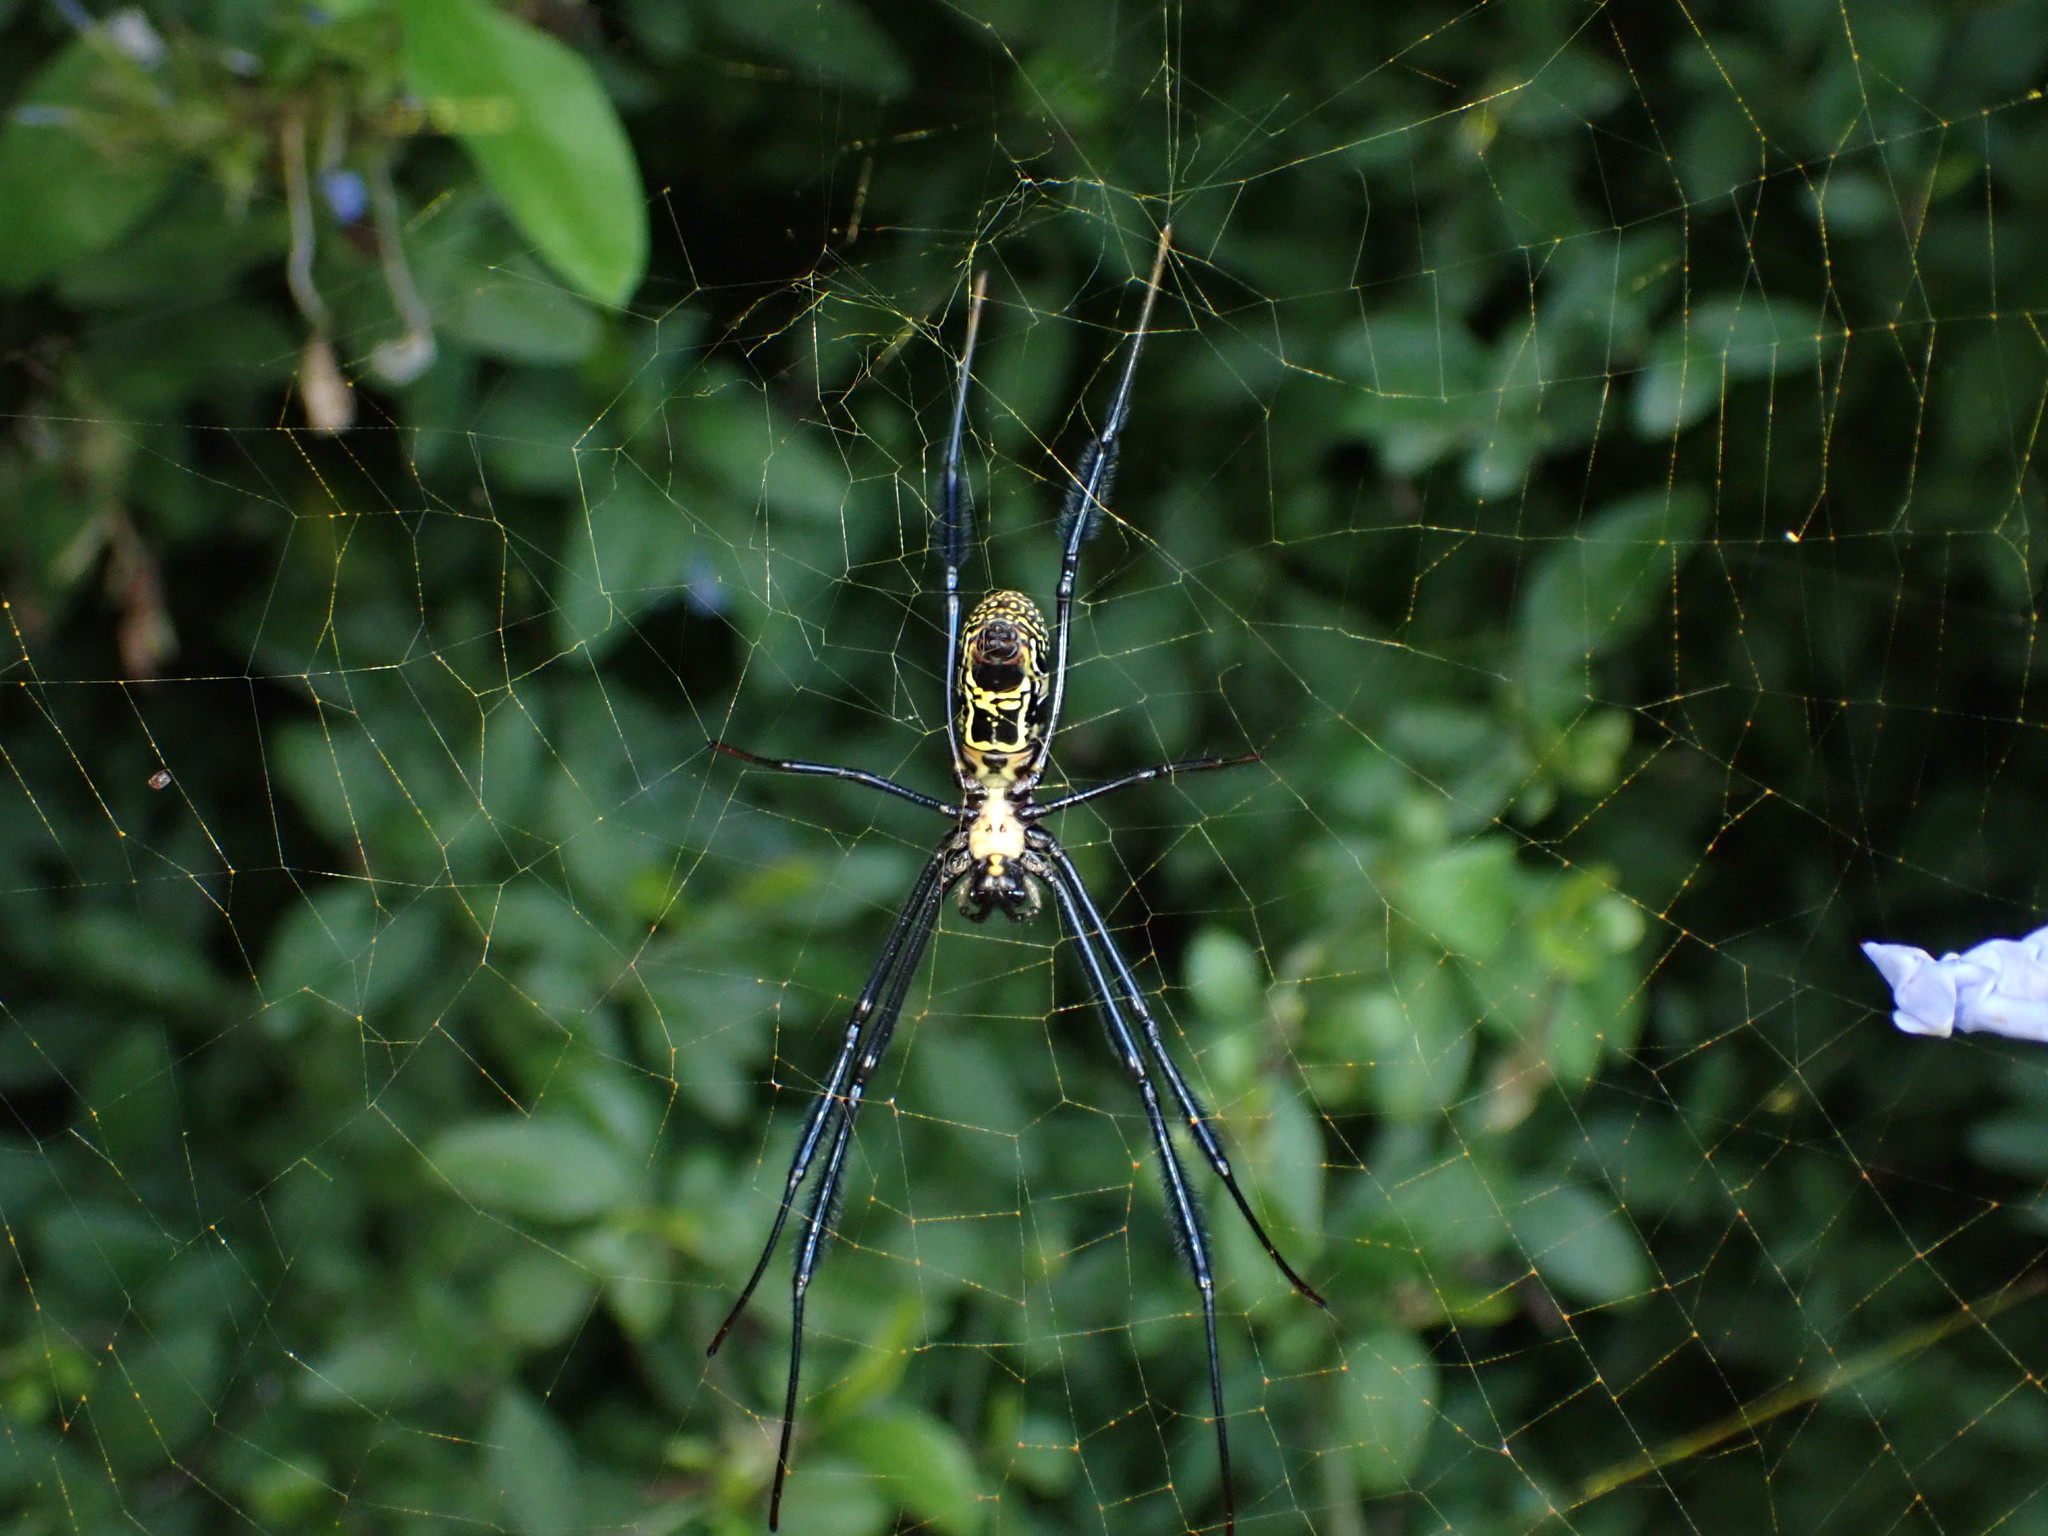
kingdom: Animalia
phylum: Arthropoda
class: Arachnida
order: Araneae
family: Araneidae
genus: Trichonephila
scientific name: Trichonephila fenestrata
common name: Hairy golden orb weaver
